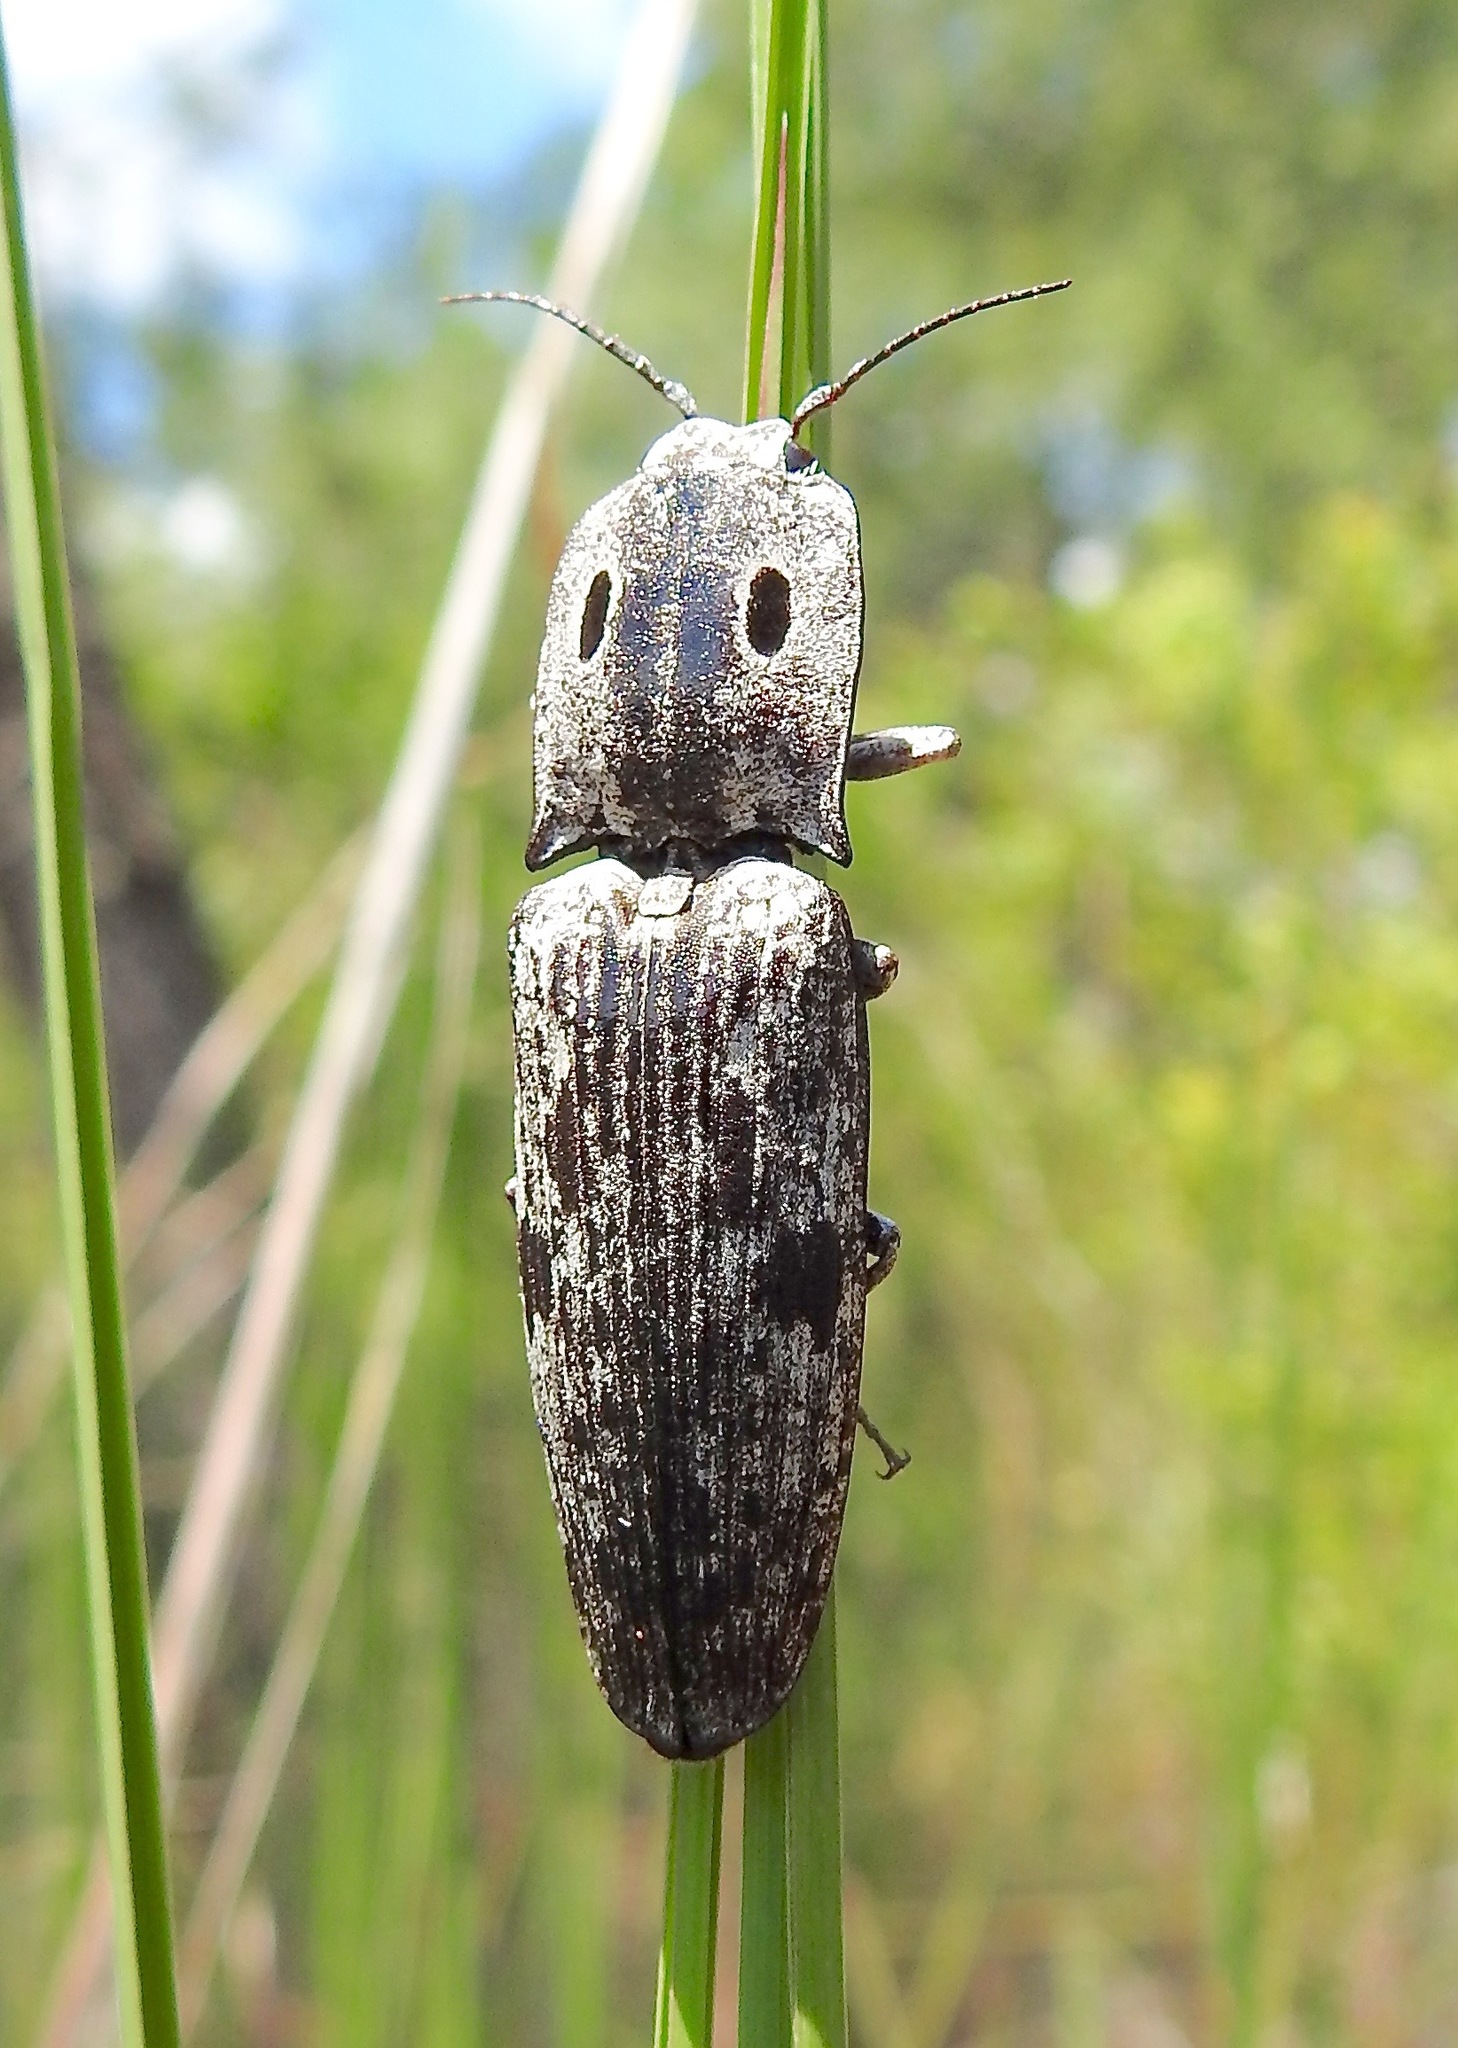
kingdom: Animalia
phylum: Arthropoda
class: Insecta
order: Coleoptera
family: Elateridae
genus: Alaus
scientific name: Alaus myops
